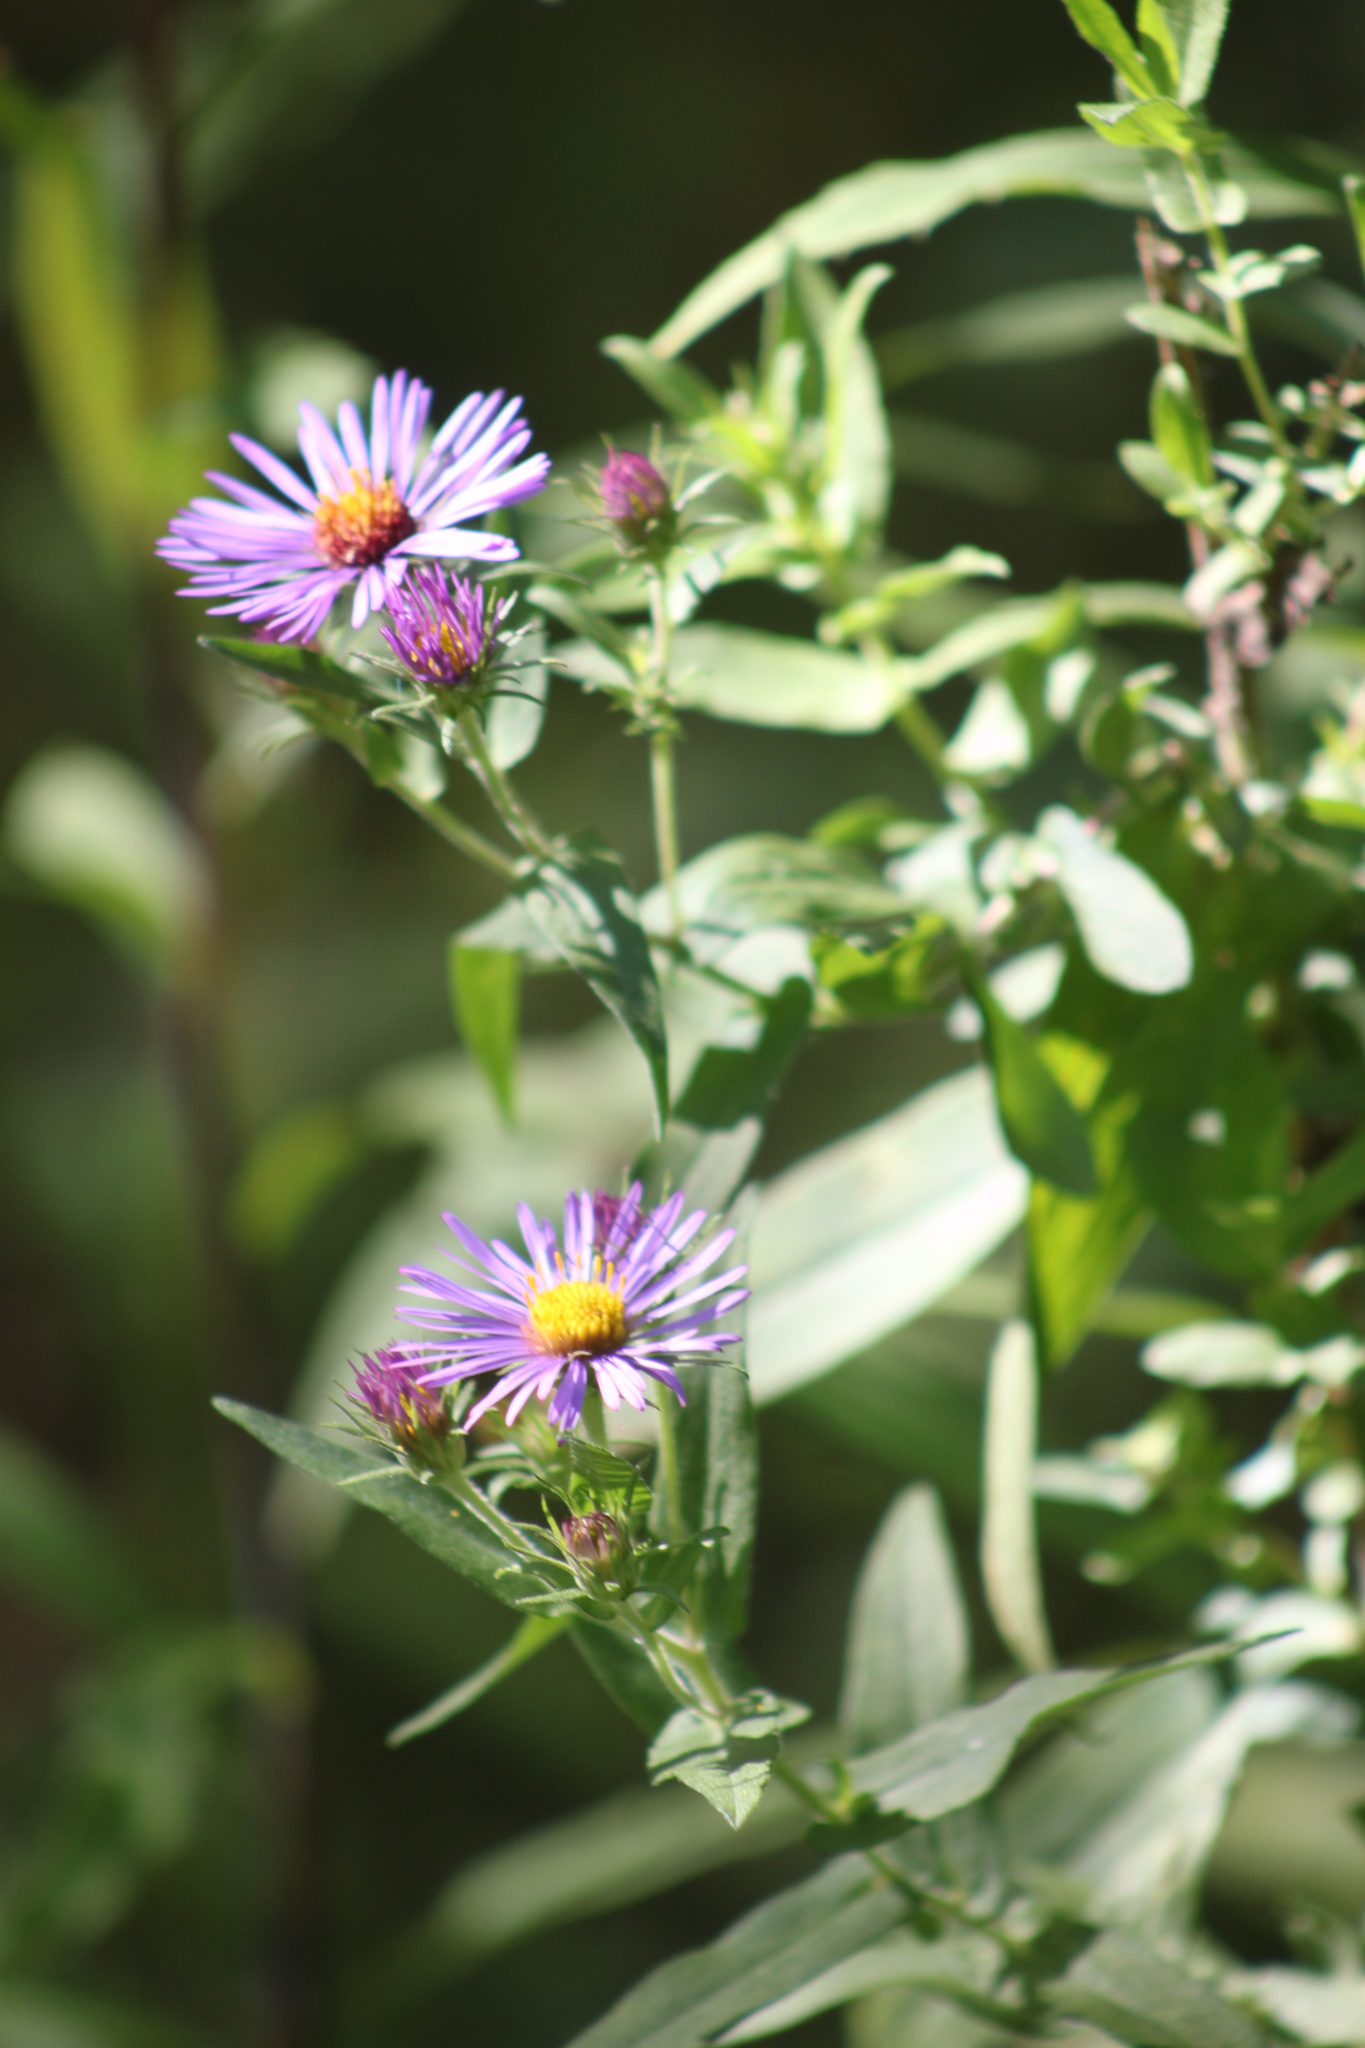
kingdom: Plantae
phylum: Tracheophyta
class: Magnoliopsida
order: Asterales
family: Asteraceae
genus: Symphyotrichum
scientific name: Symphyotrichum novae-angliae
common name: Michaelmas daisy
